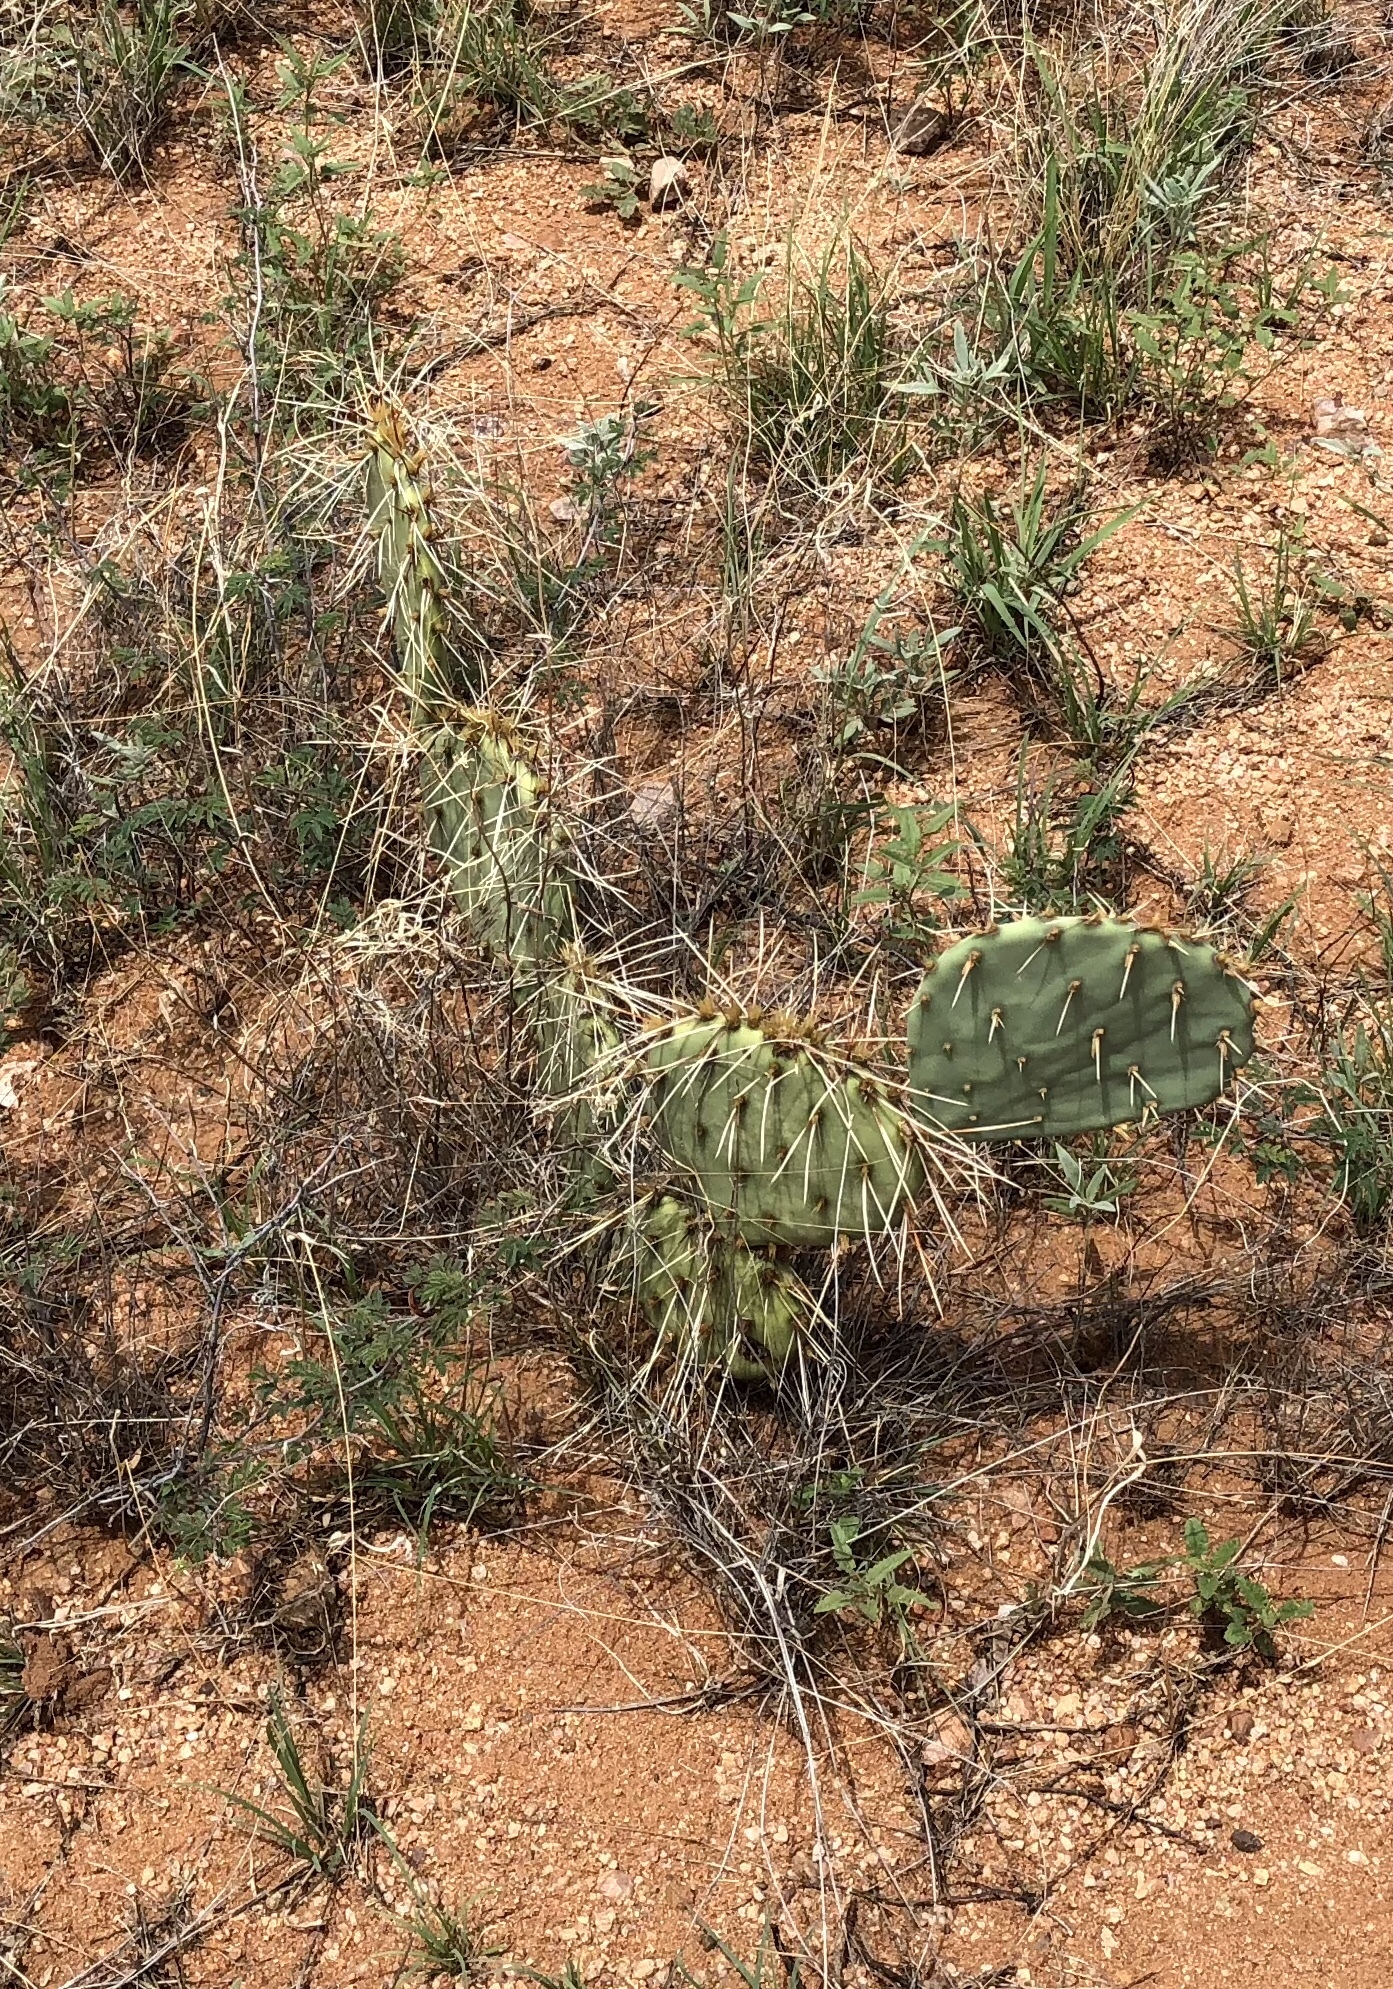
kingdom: Plantae
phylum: Tracheophyta
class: Magnoliopsida
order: Caryophyllales
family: Cactaceae
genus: Opuntia
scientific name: Opuntia engelmannii
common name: Cactus-apple
